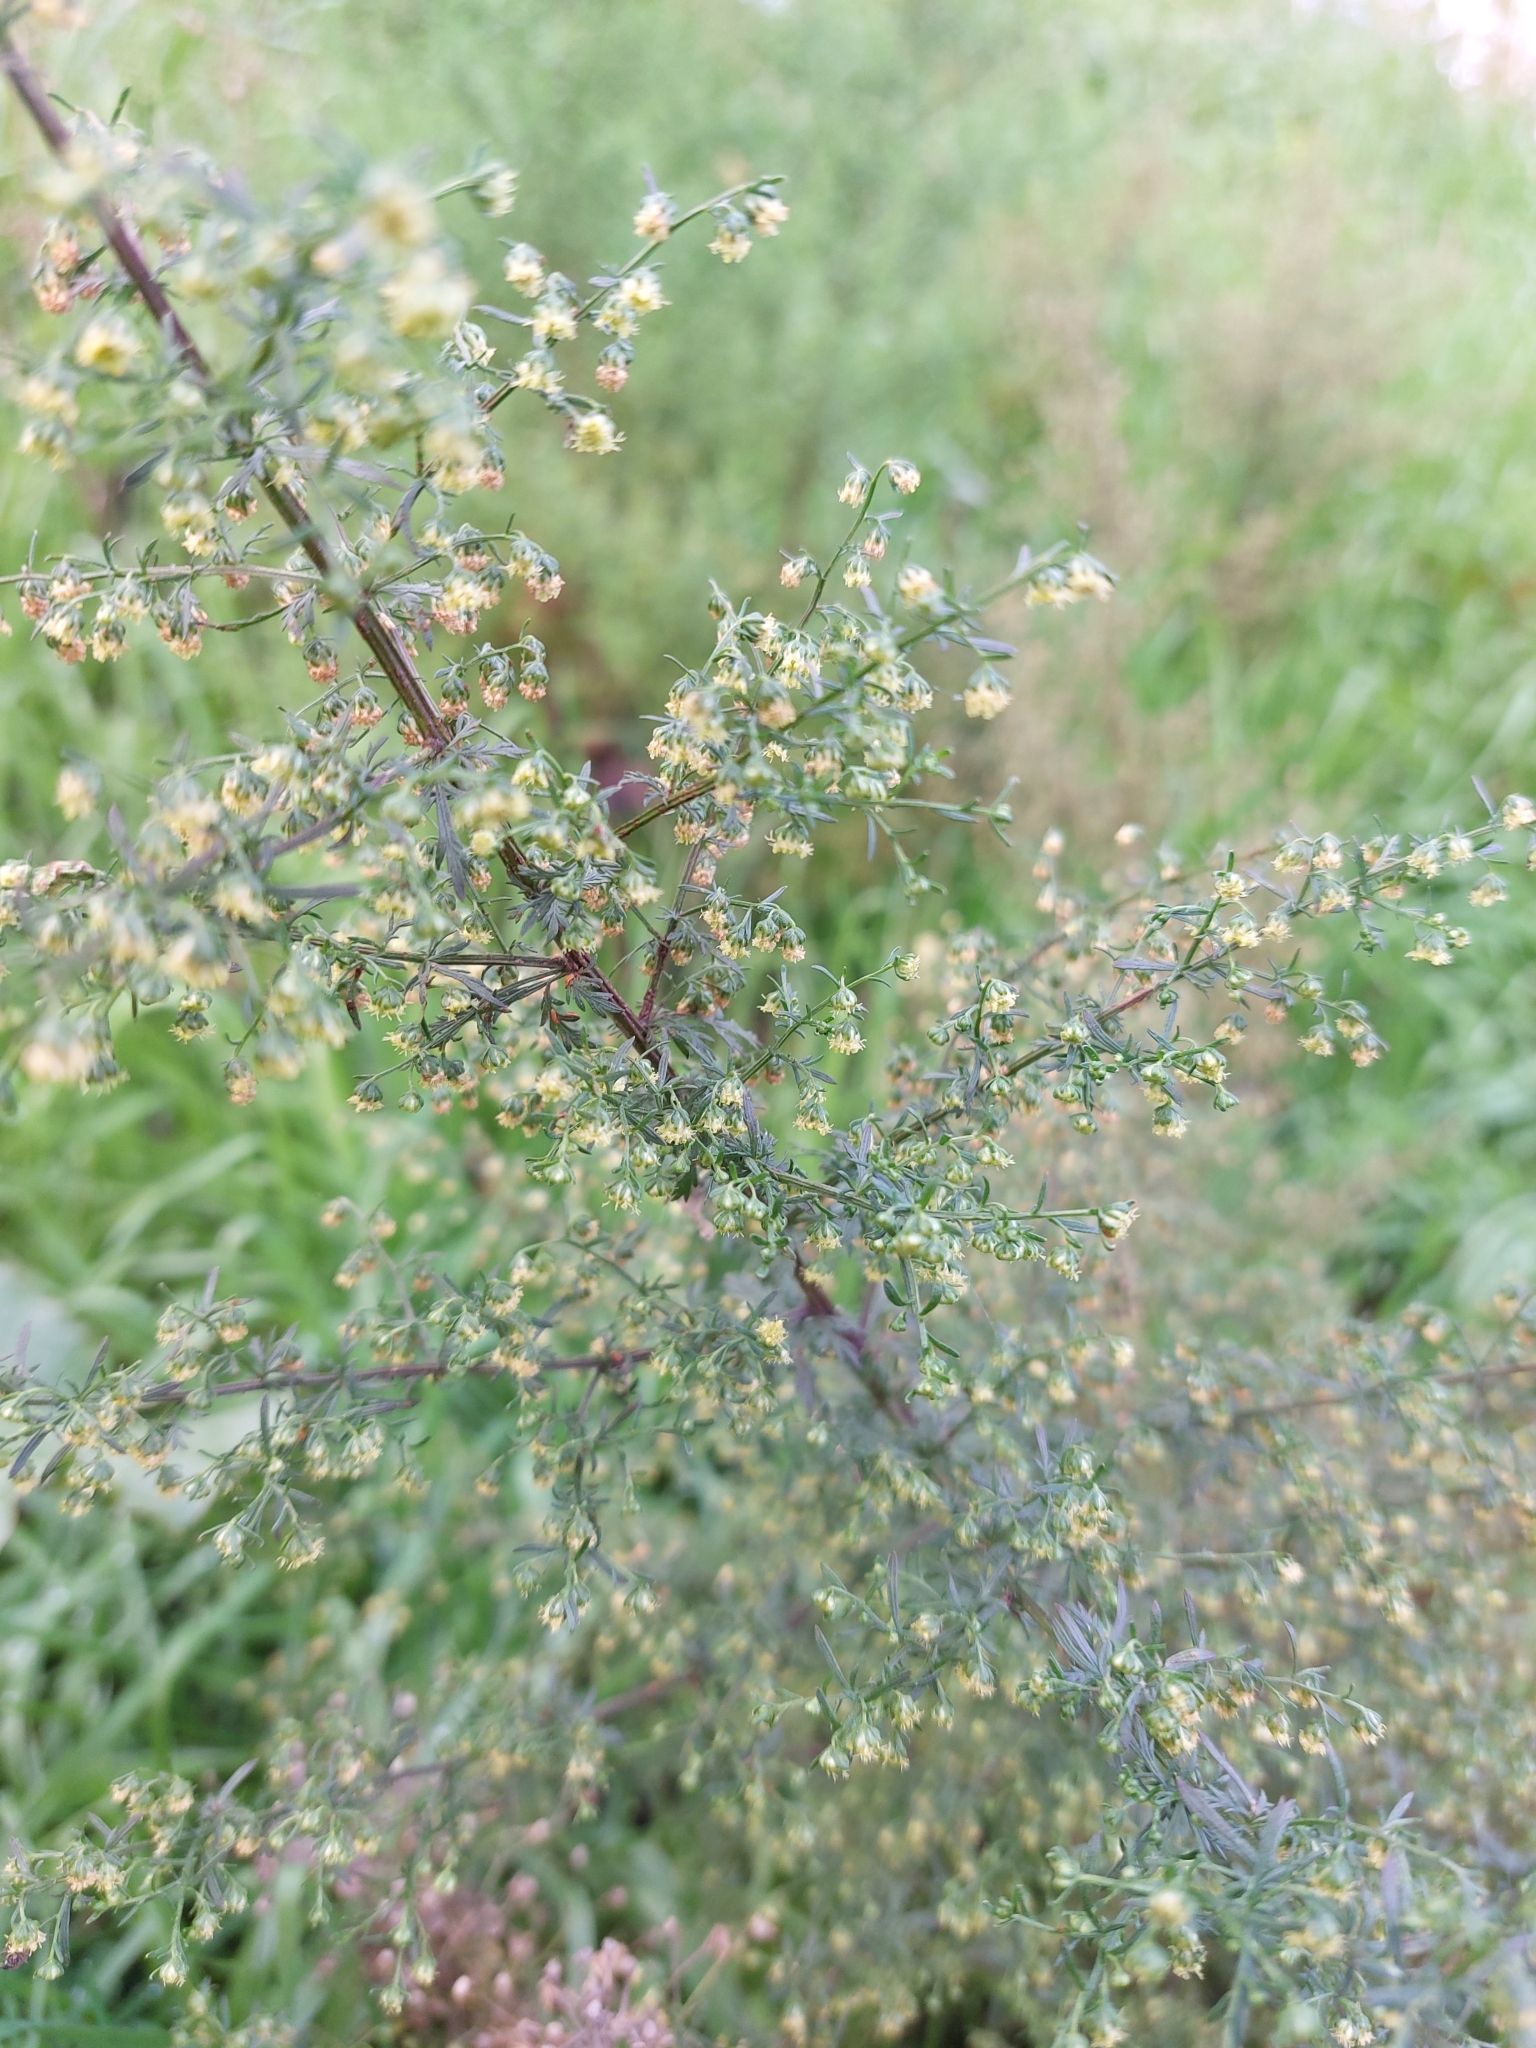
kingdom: Plantae
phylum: Tracheophyta
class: Magnoliopsida
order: Asterales
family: Asteraceae
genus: Artemisia
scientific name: Artemisia annua
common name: Sweet sagewort
